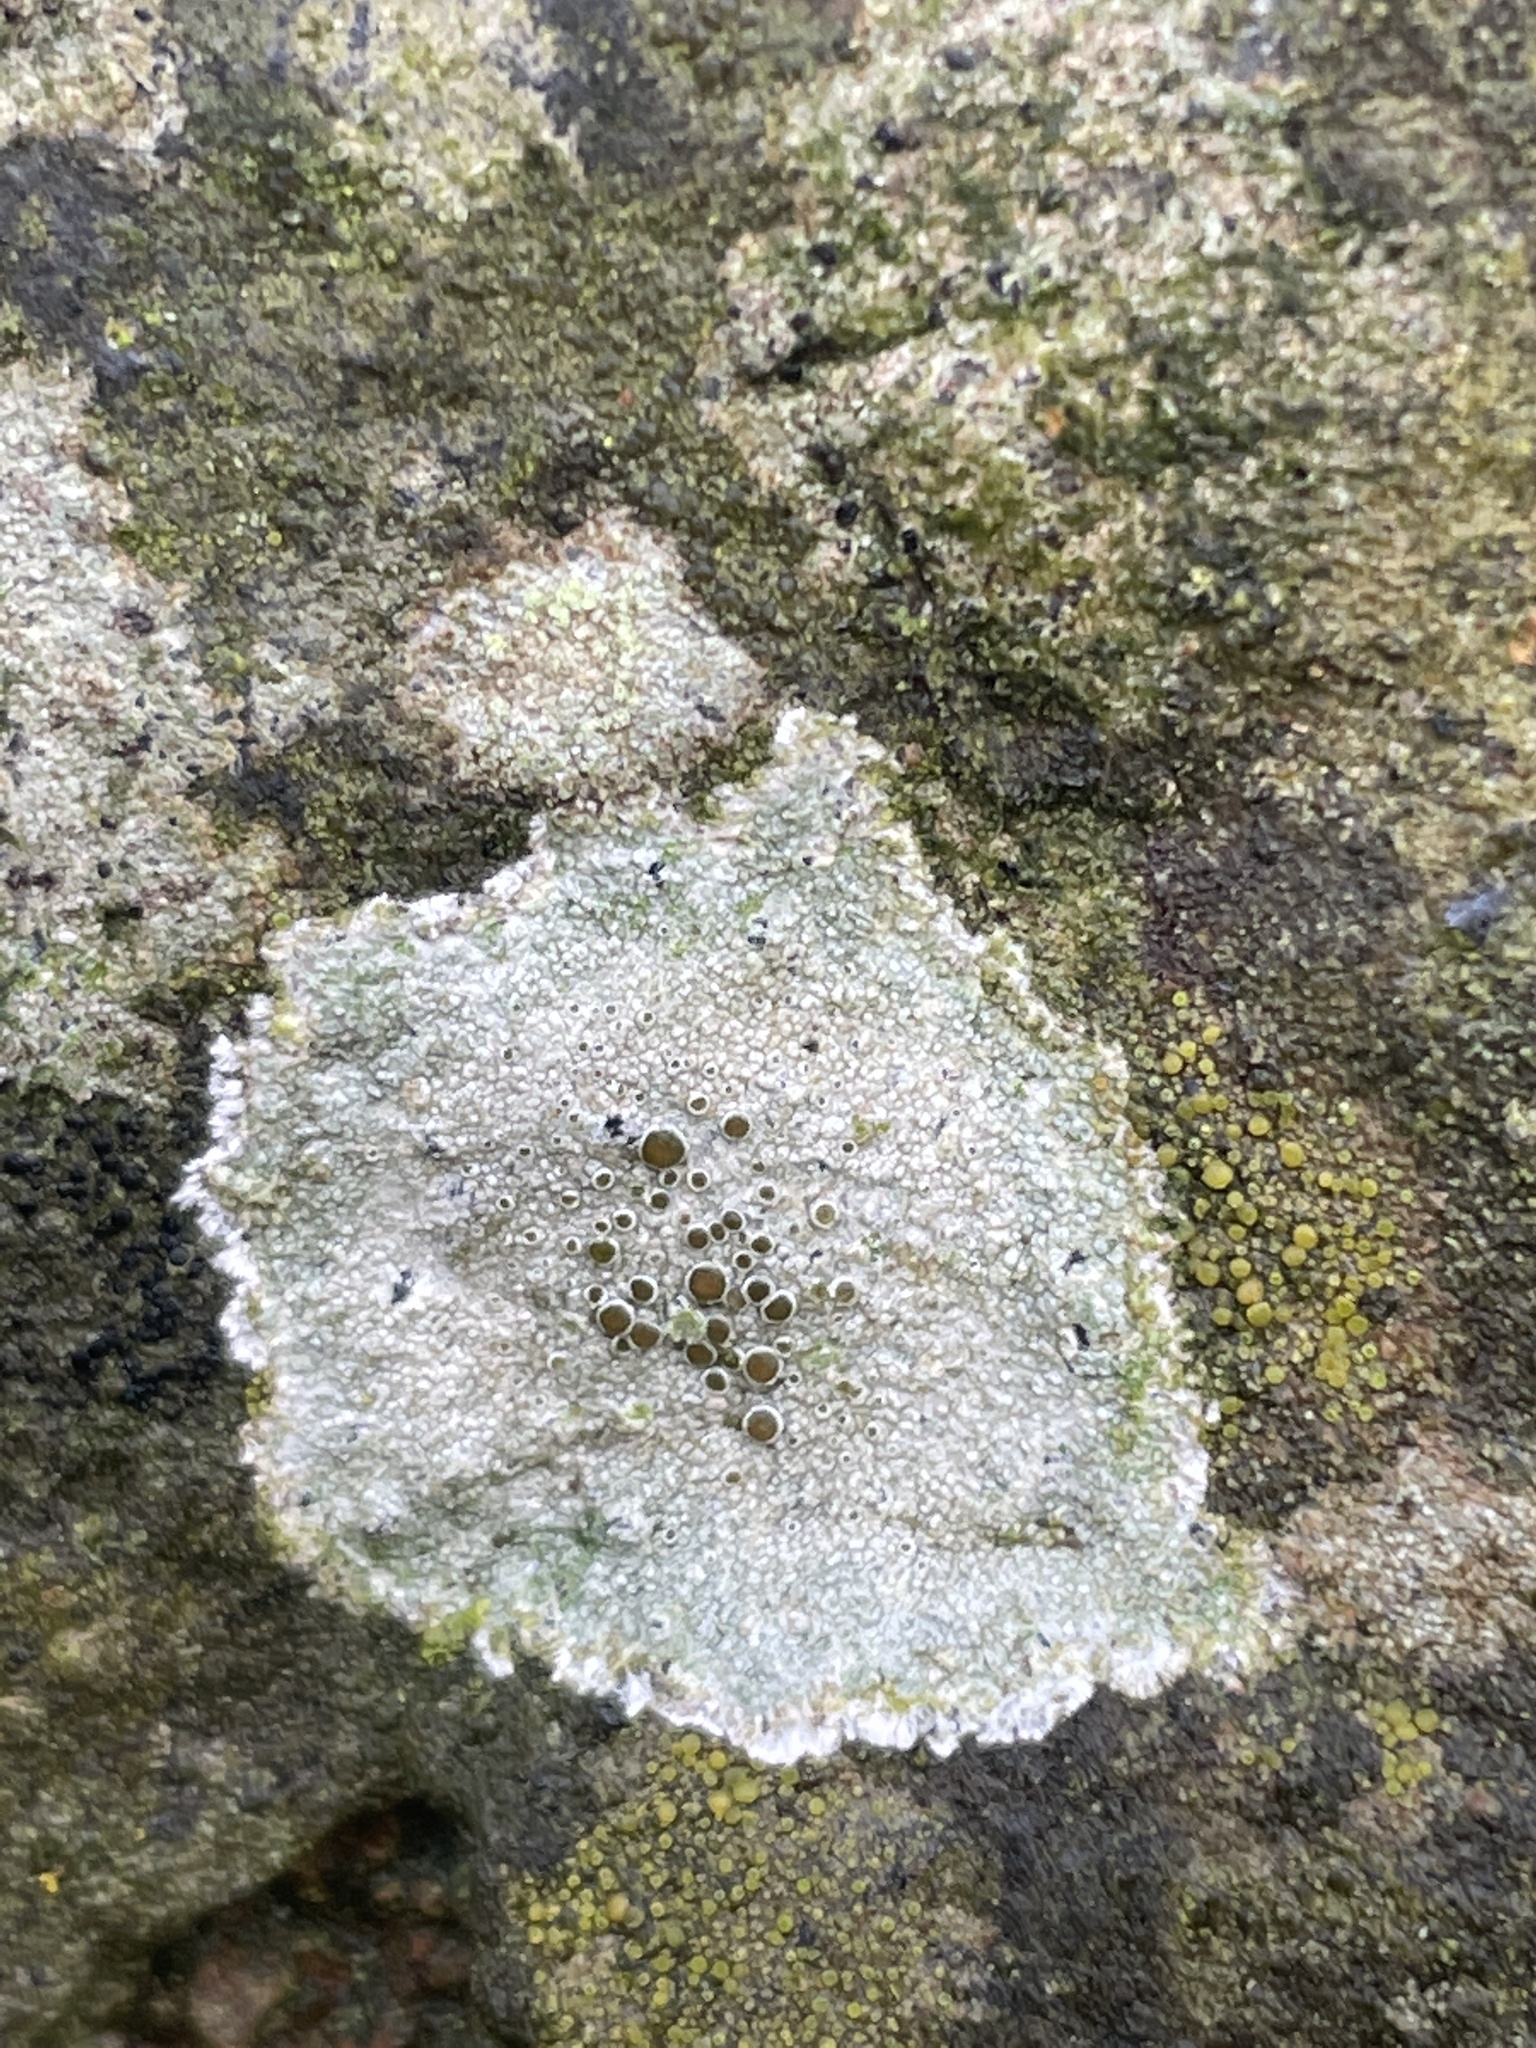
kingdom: Fungi
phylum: Ascomycota
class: Lecanoromycetes
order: Lecanorales
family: Lecanoraceae
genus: Lecanora
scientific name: Lecanora campestris
